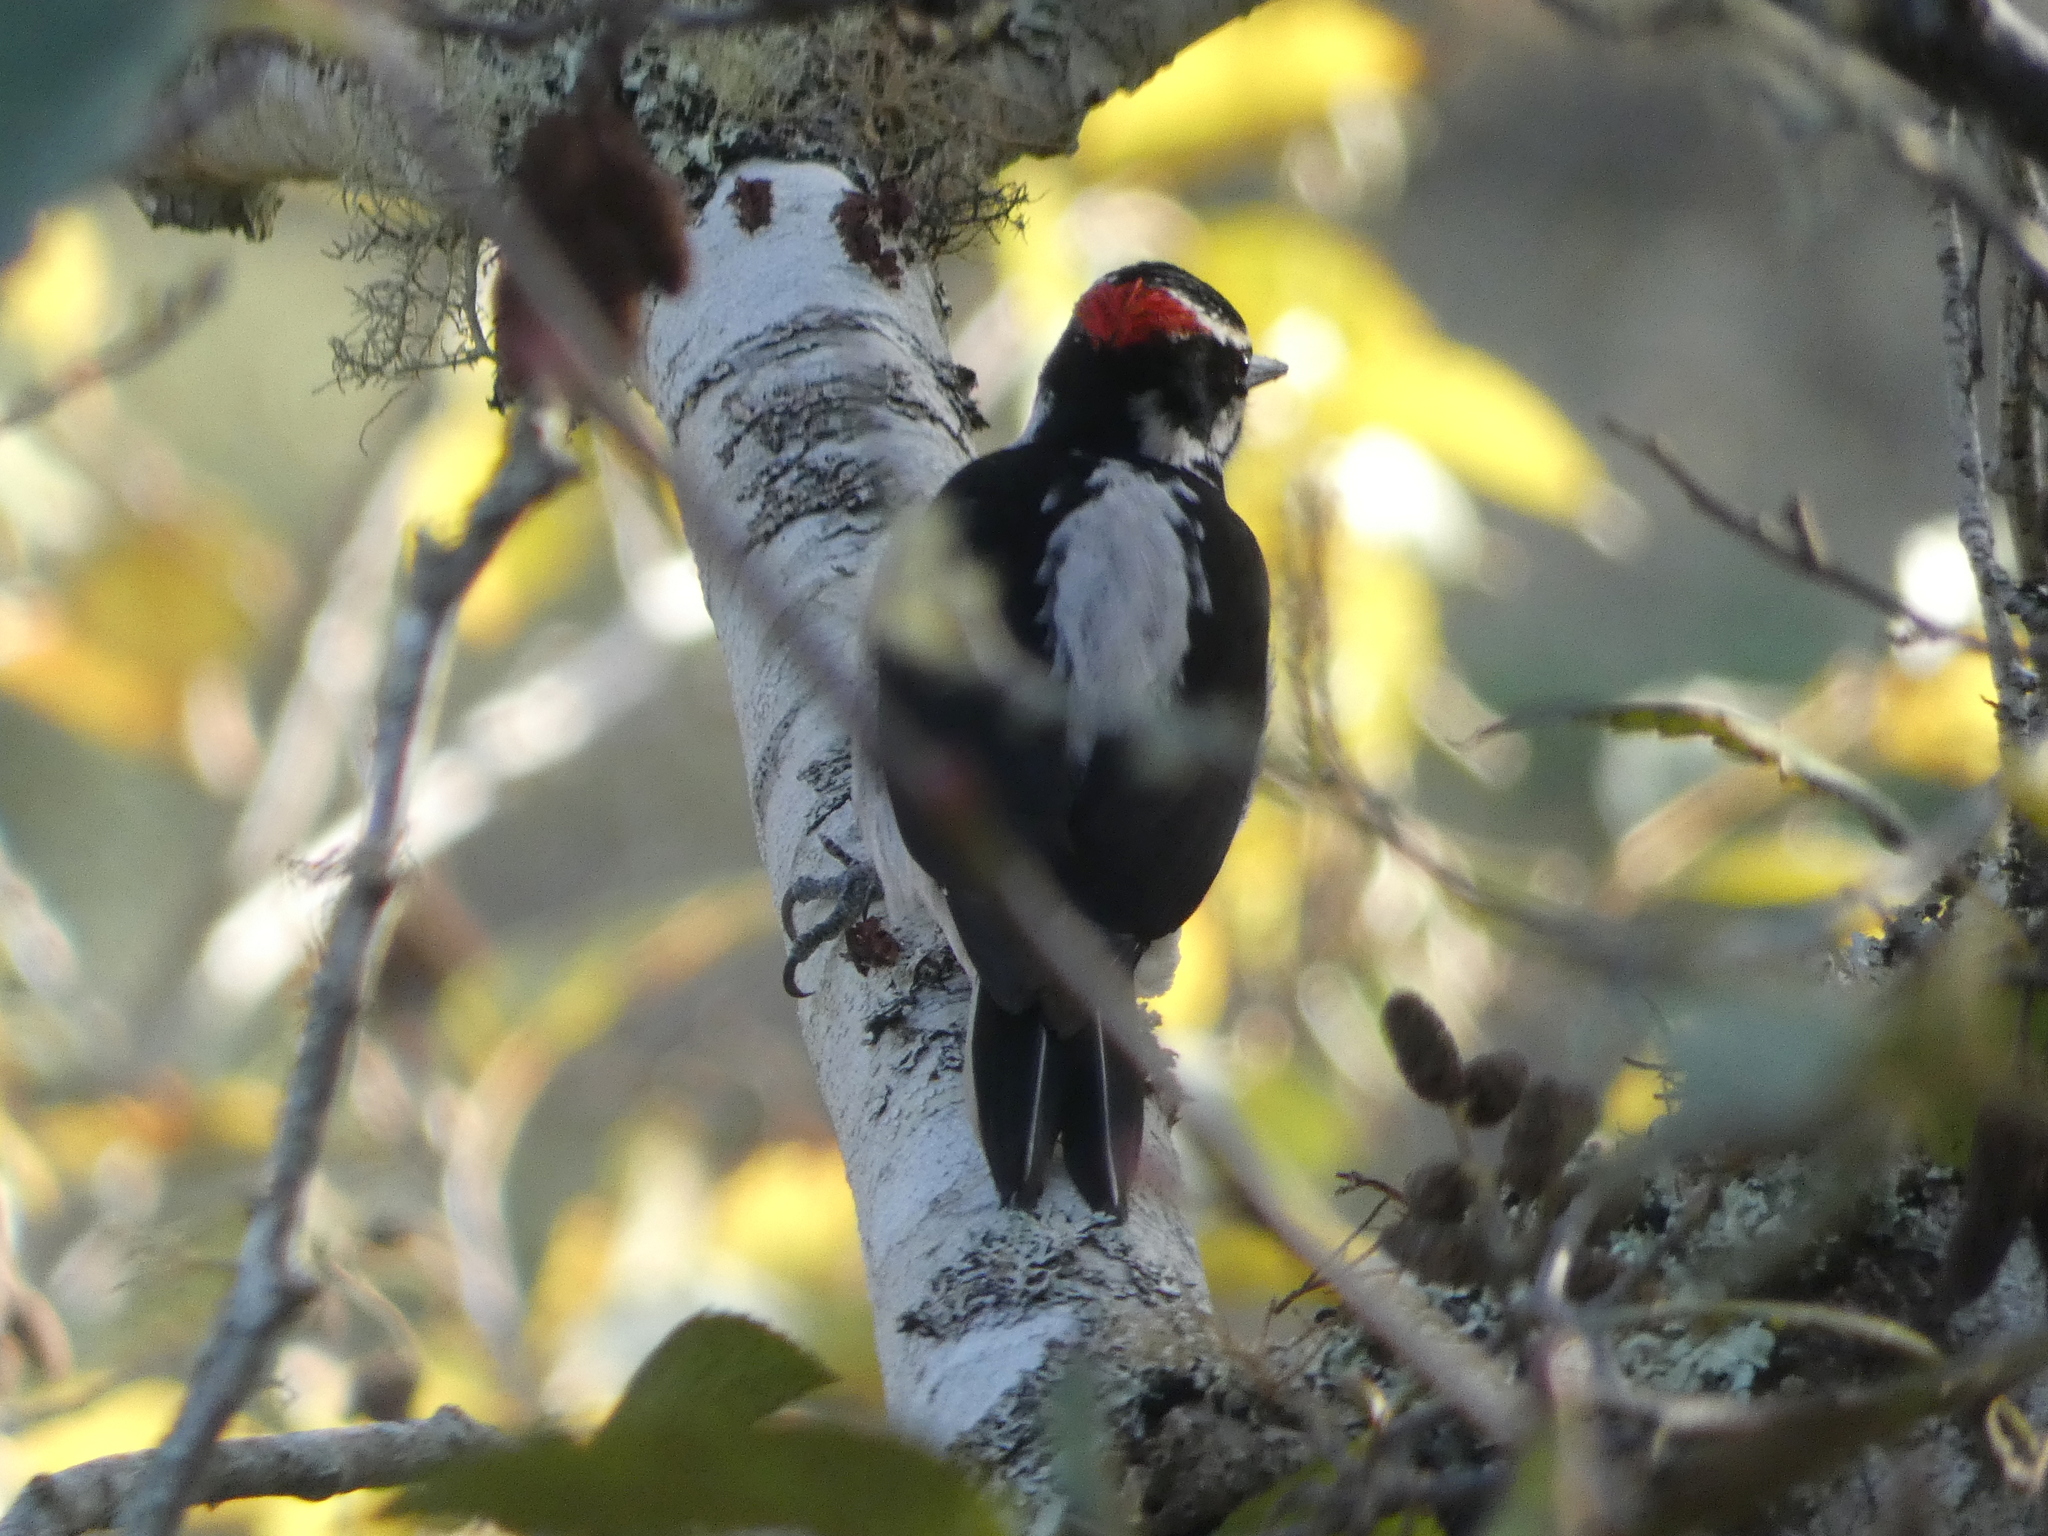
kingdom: Animalia
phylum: Chordata
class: Aves
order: Piciformes
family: Picidae
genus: Leuconotopicus
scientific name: Leuconotopicus villosus
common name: Hairy woodpecker
